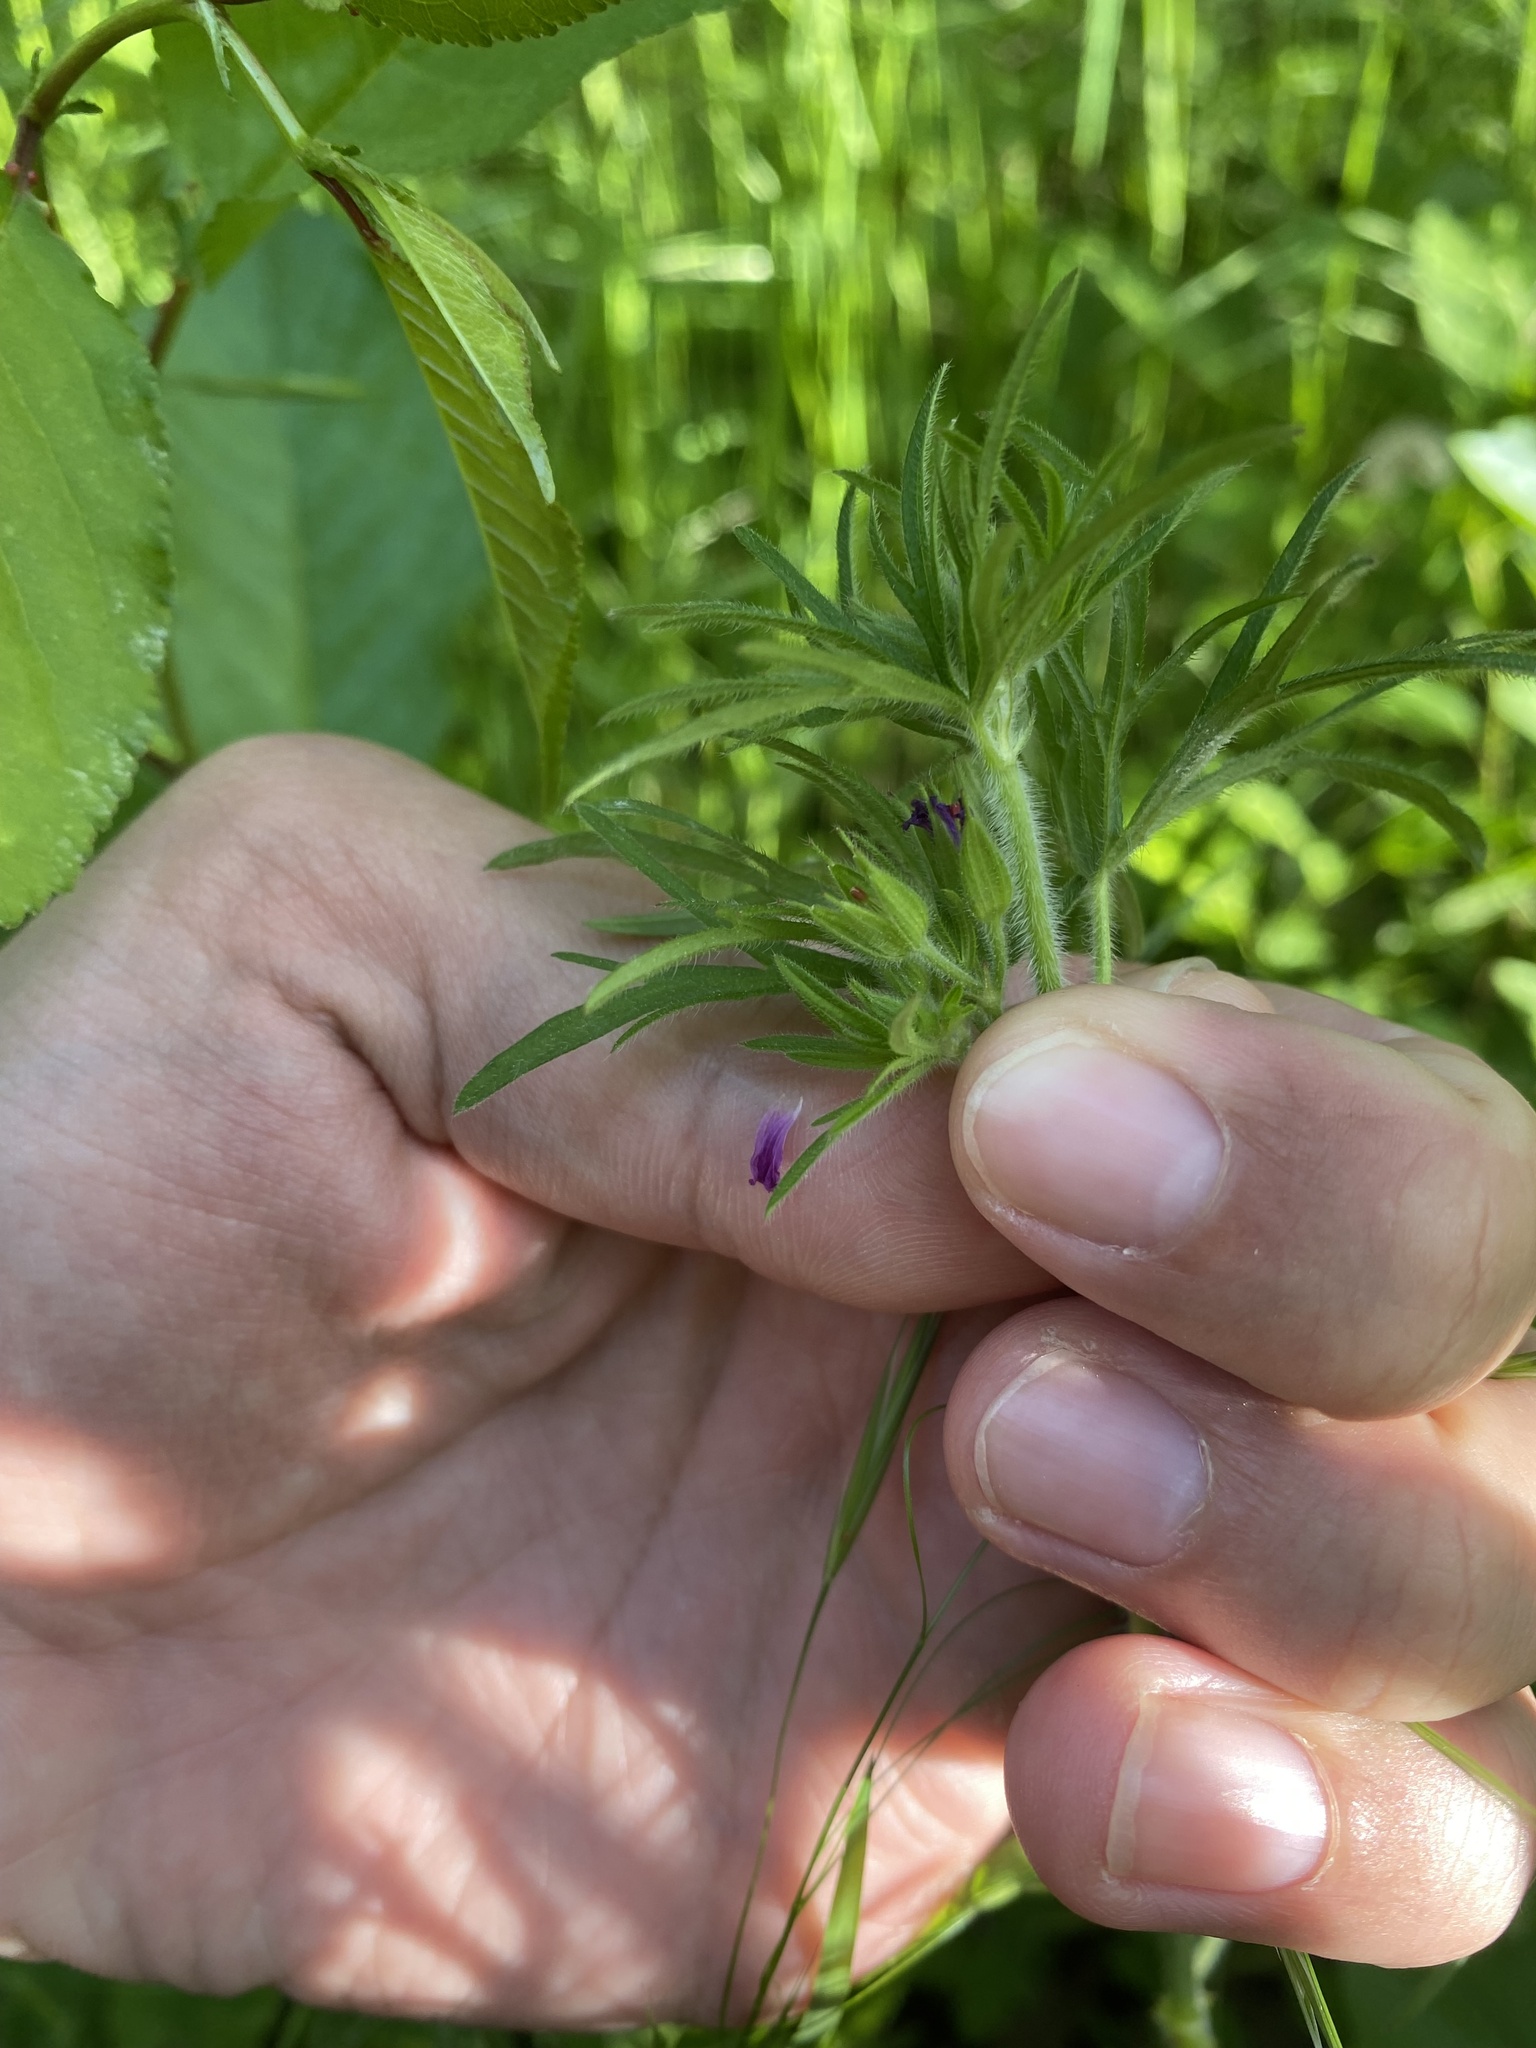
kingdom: Plantae
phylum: Tracheophyta
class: Magnoliopsida
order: Geraniales
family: Geraniaceae
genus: Geranium
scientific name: Geranium dissectum
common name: Cut-leaved crane's-bill
